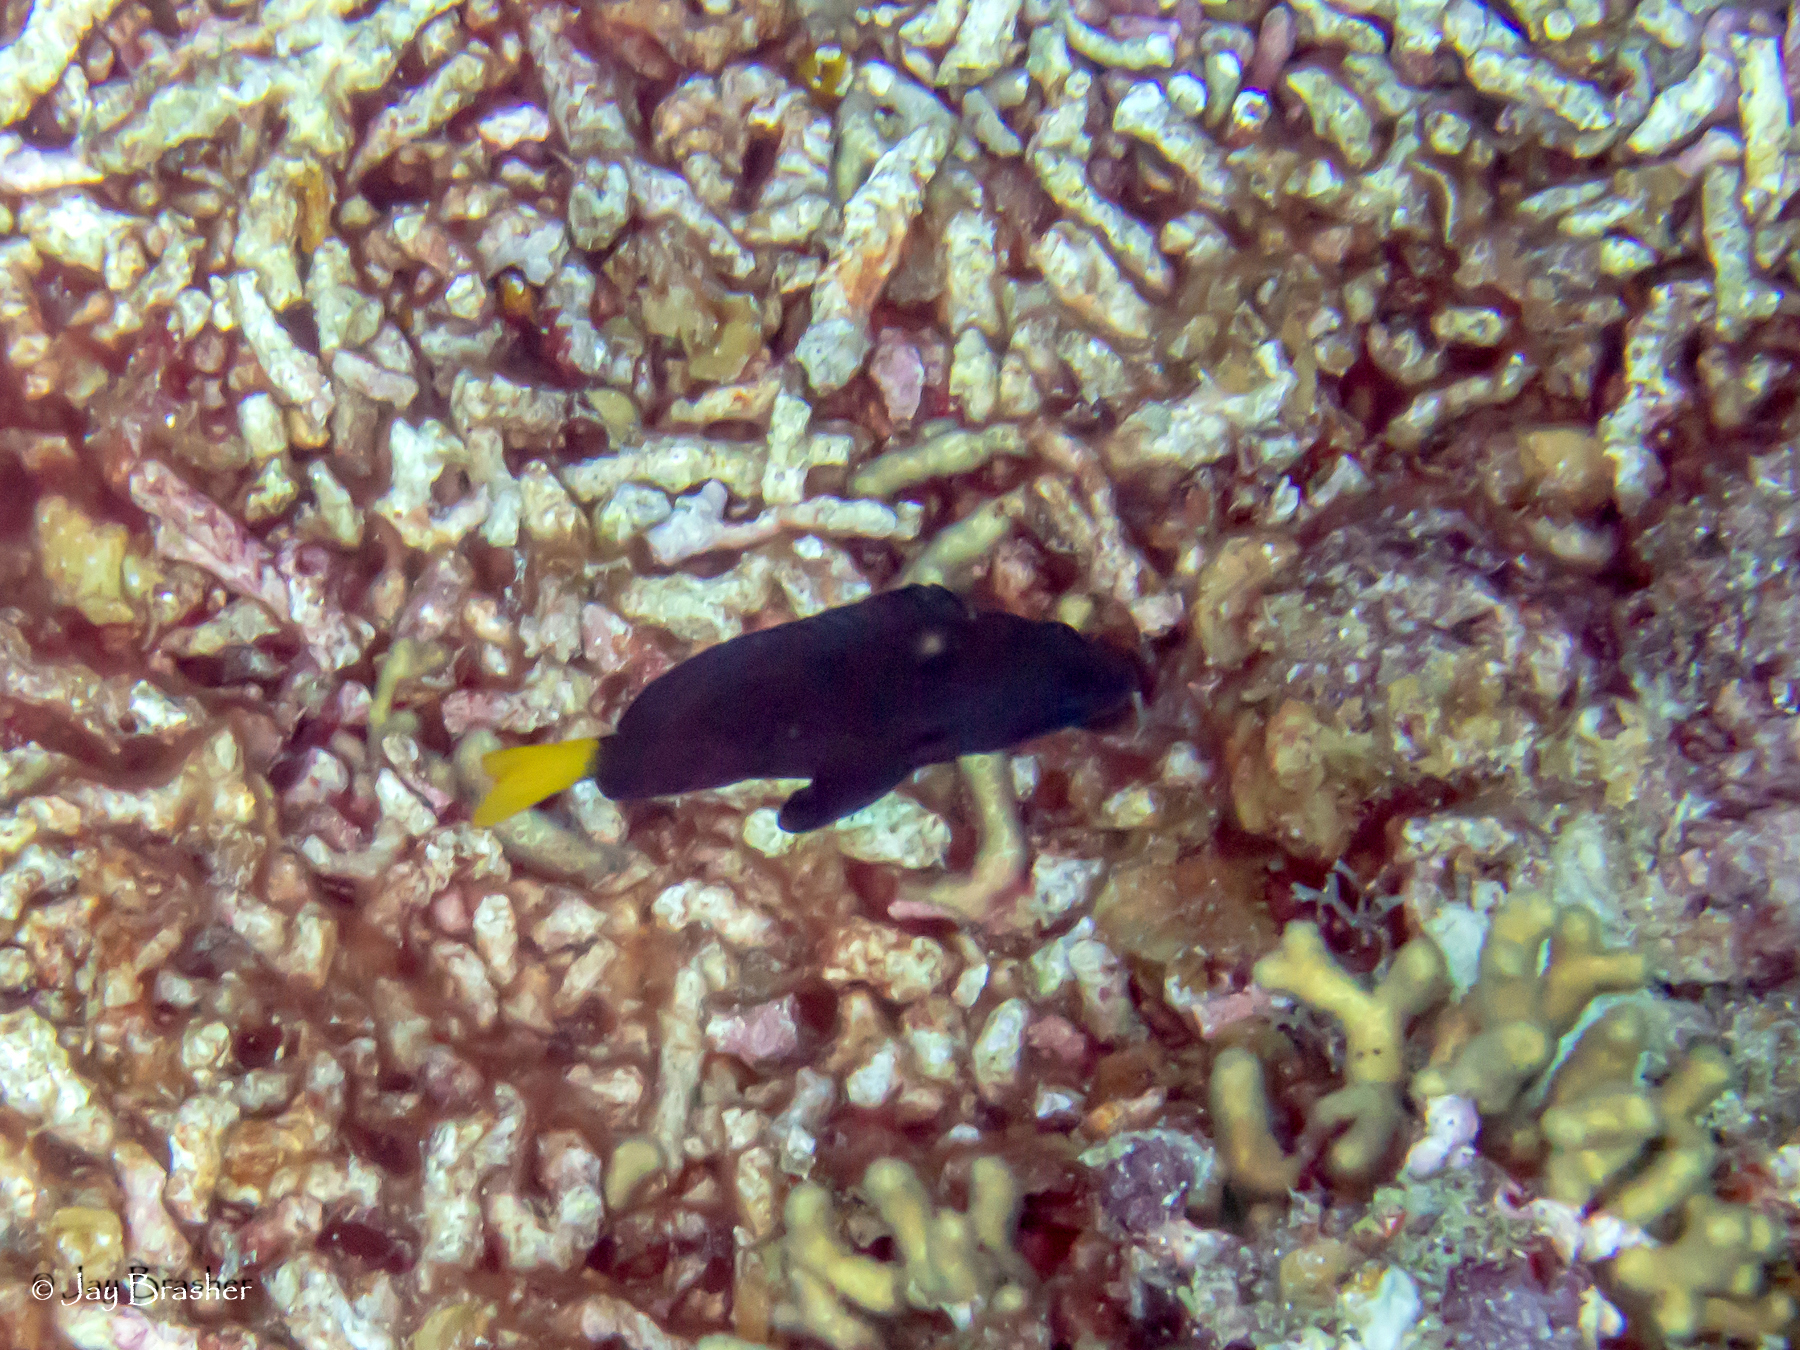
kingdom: Animalia
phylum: Chordata
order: Perciformes
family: Serranidae
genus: Hypoplectrus
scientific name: Hypoplectrus chlorurus
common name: Yellowtail hamlet
